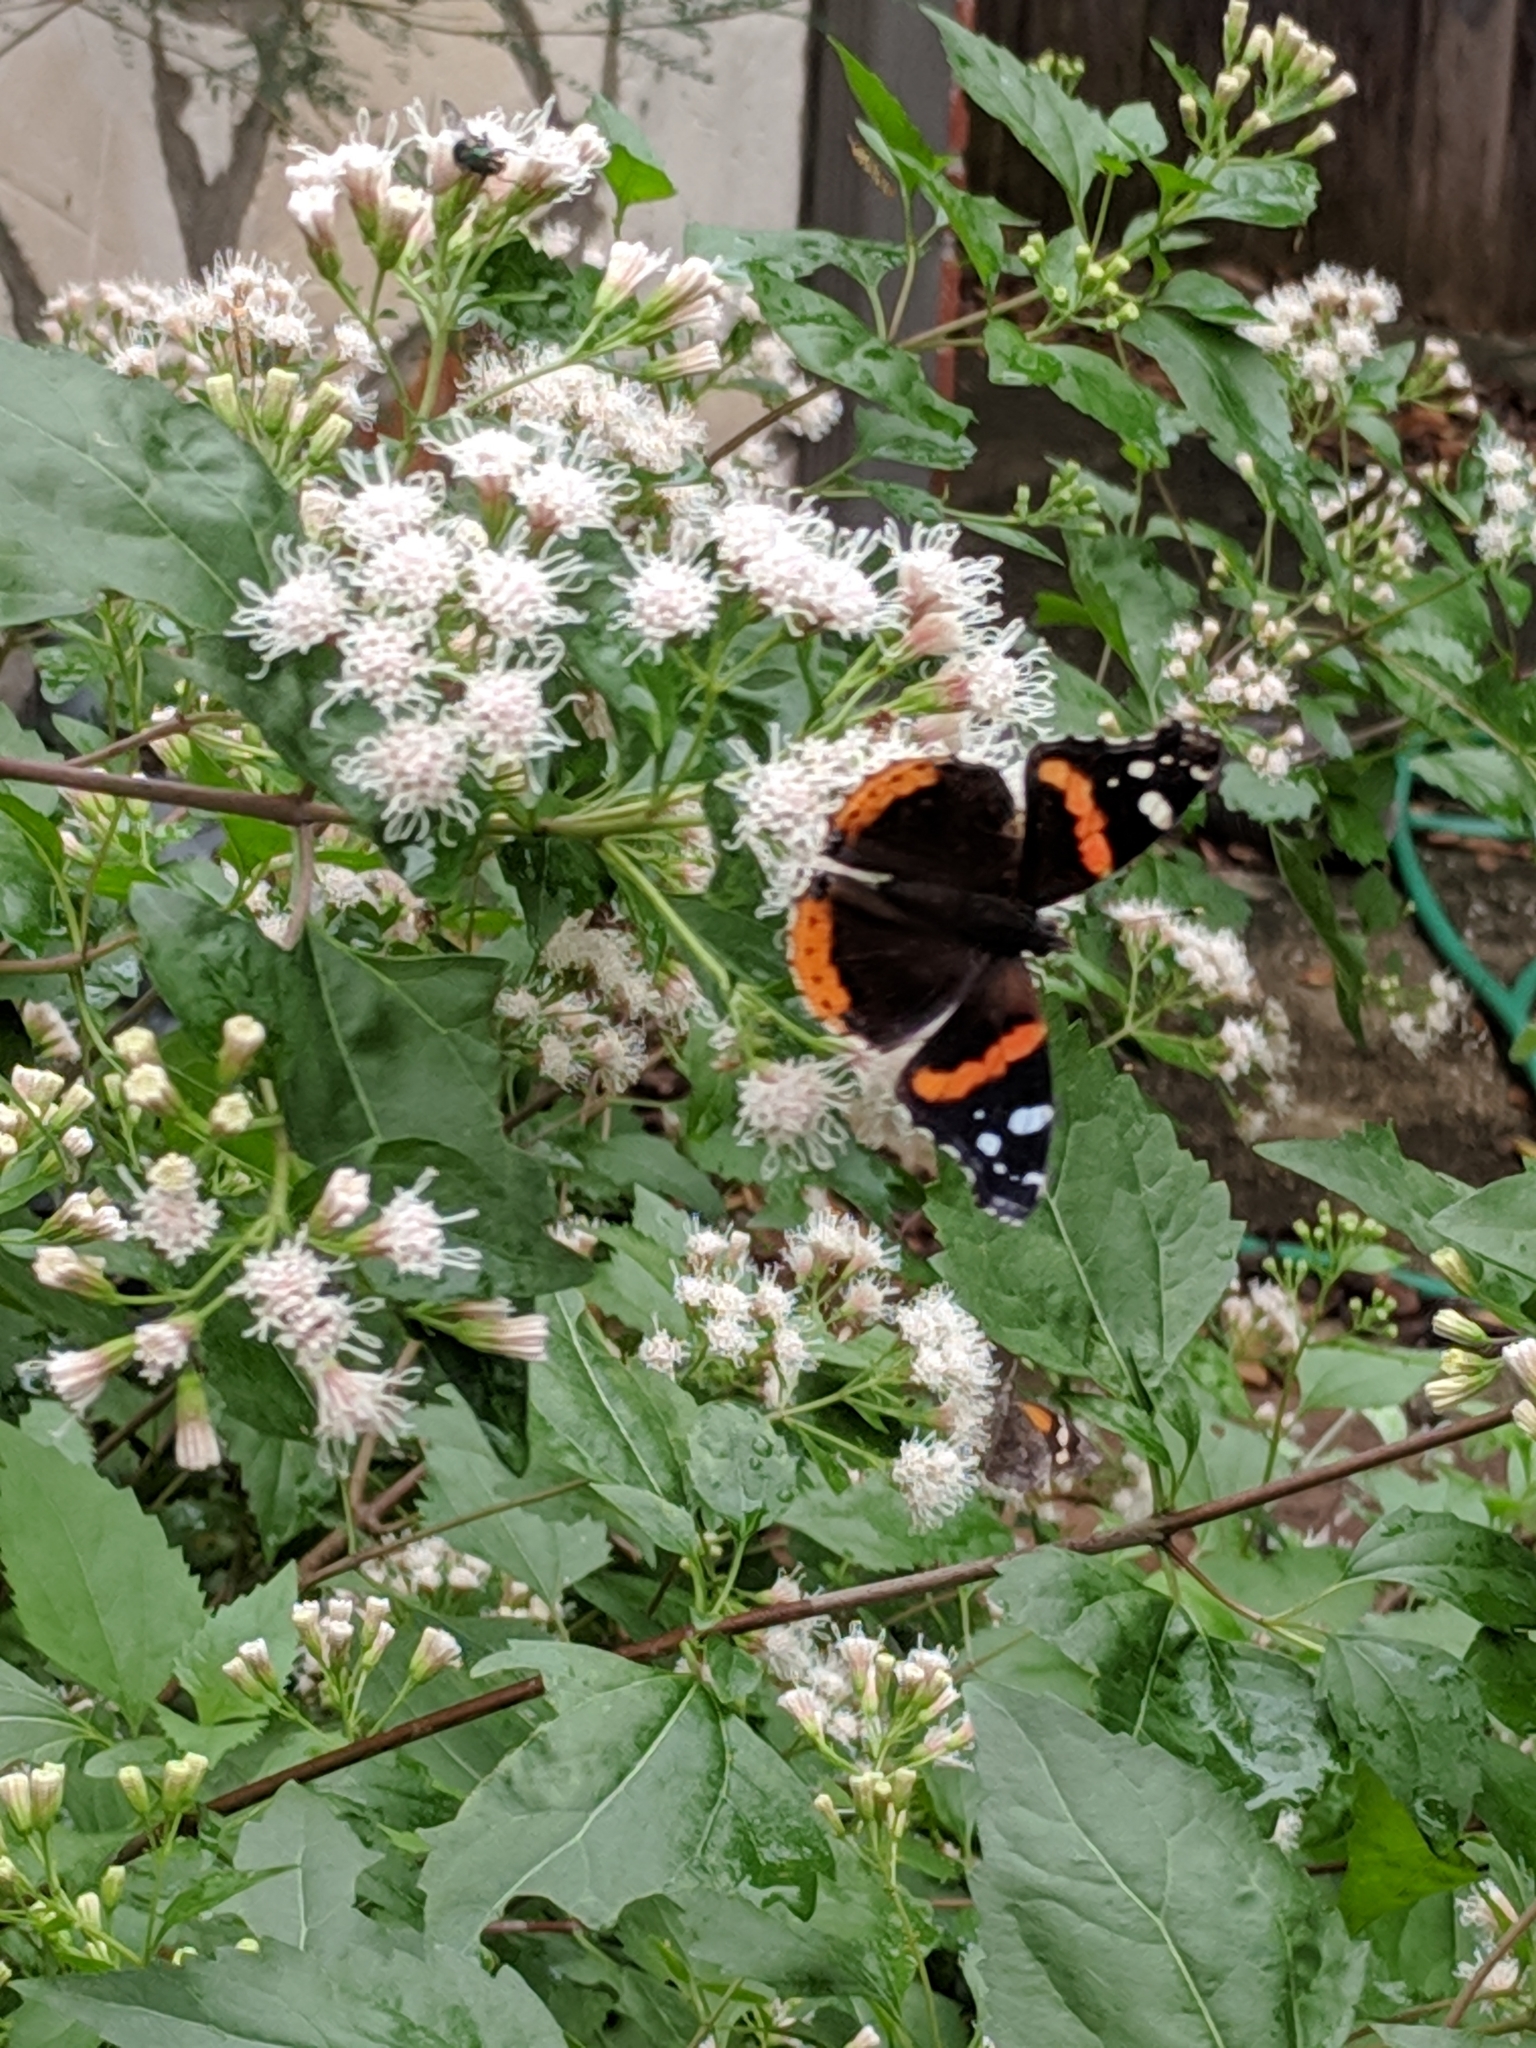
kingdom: Animalia
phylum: Arthropoda
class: Insecta
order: Lepidoptera
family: Nymphalidae
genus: Vanessa
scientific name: Vanessa atalanta
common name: Red admiral
